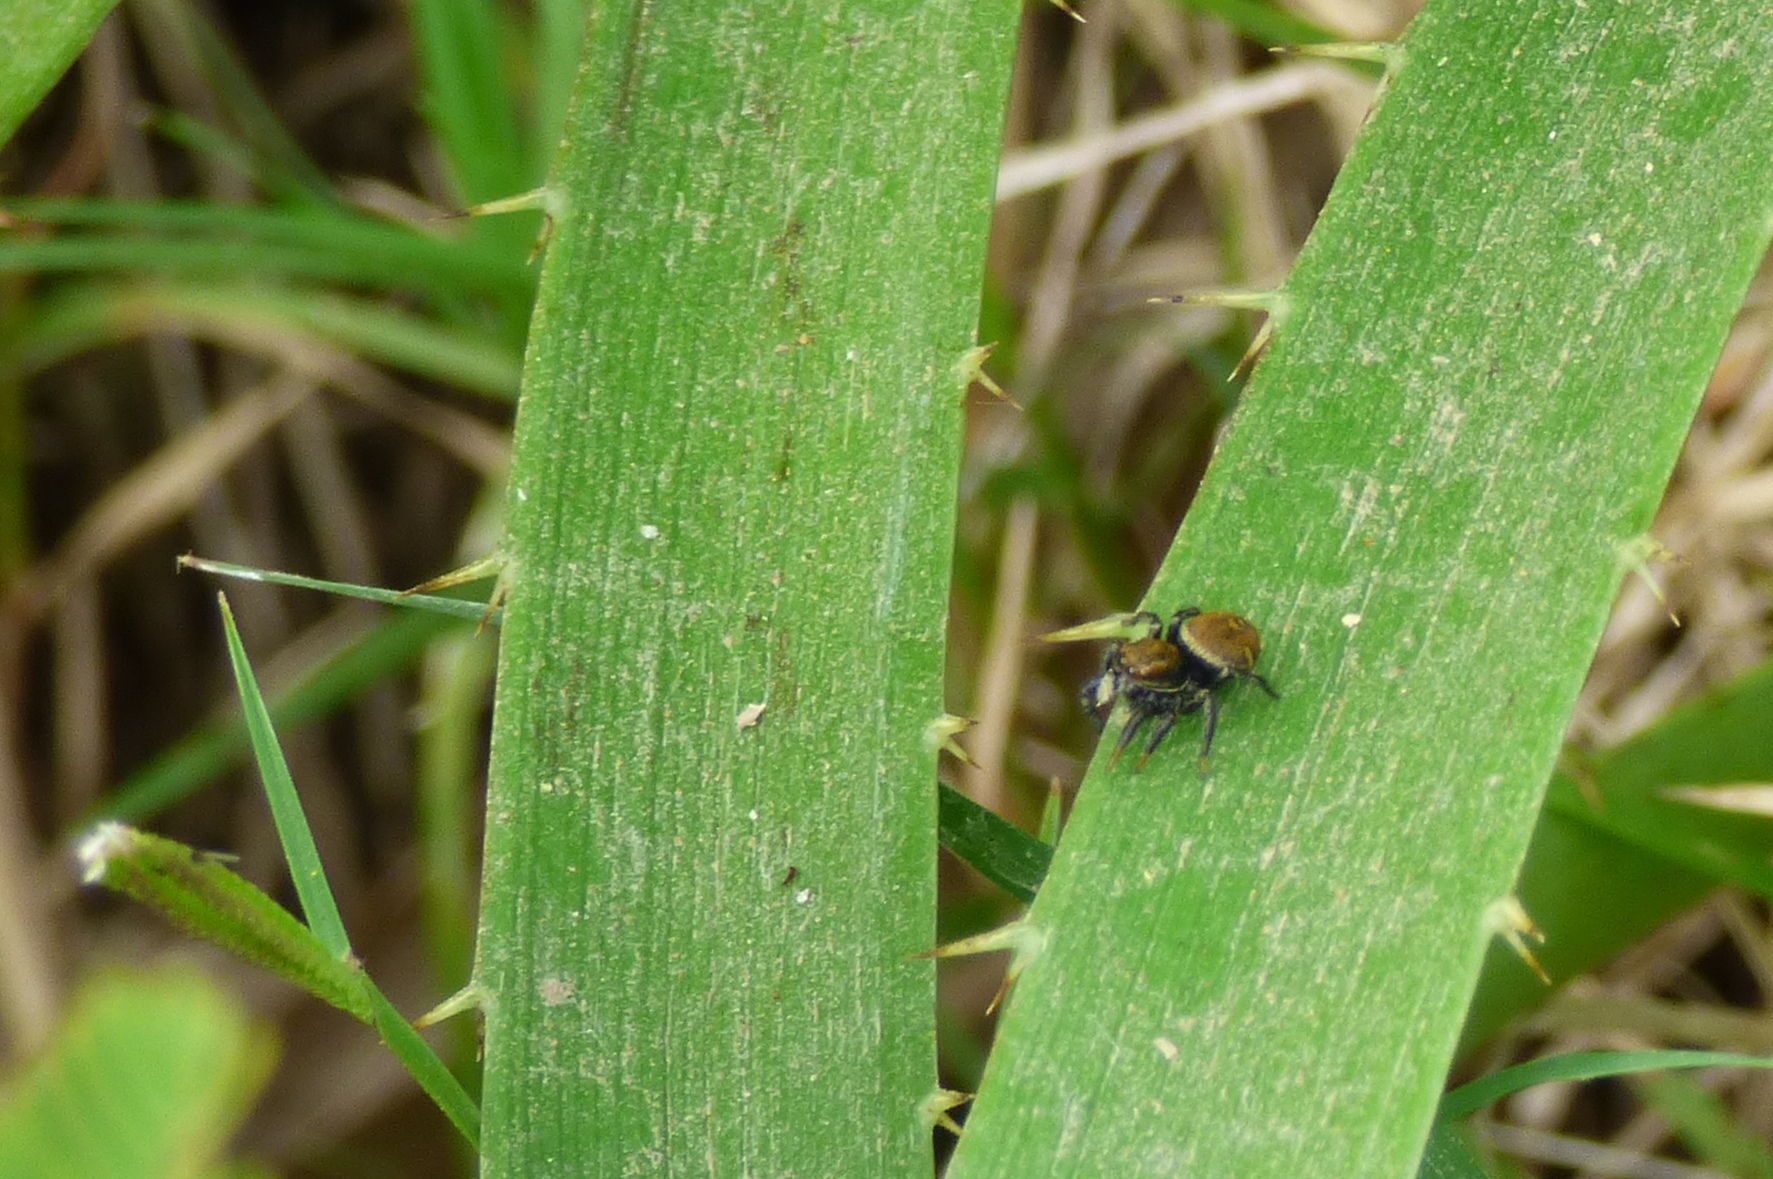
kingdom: Animalia
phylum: Arthropoda
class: Arachnida
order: Araneae
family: Salticidae
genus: Phiale
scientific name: Phiale roburifoliata
